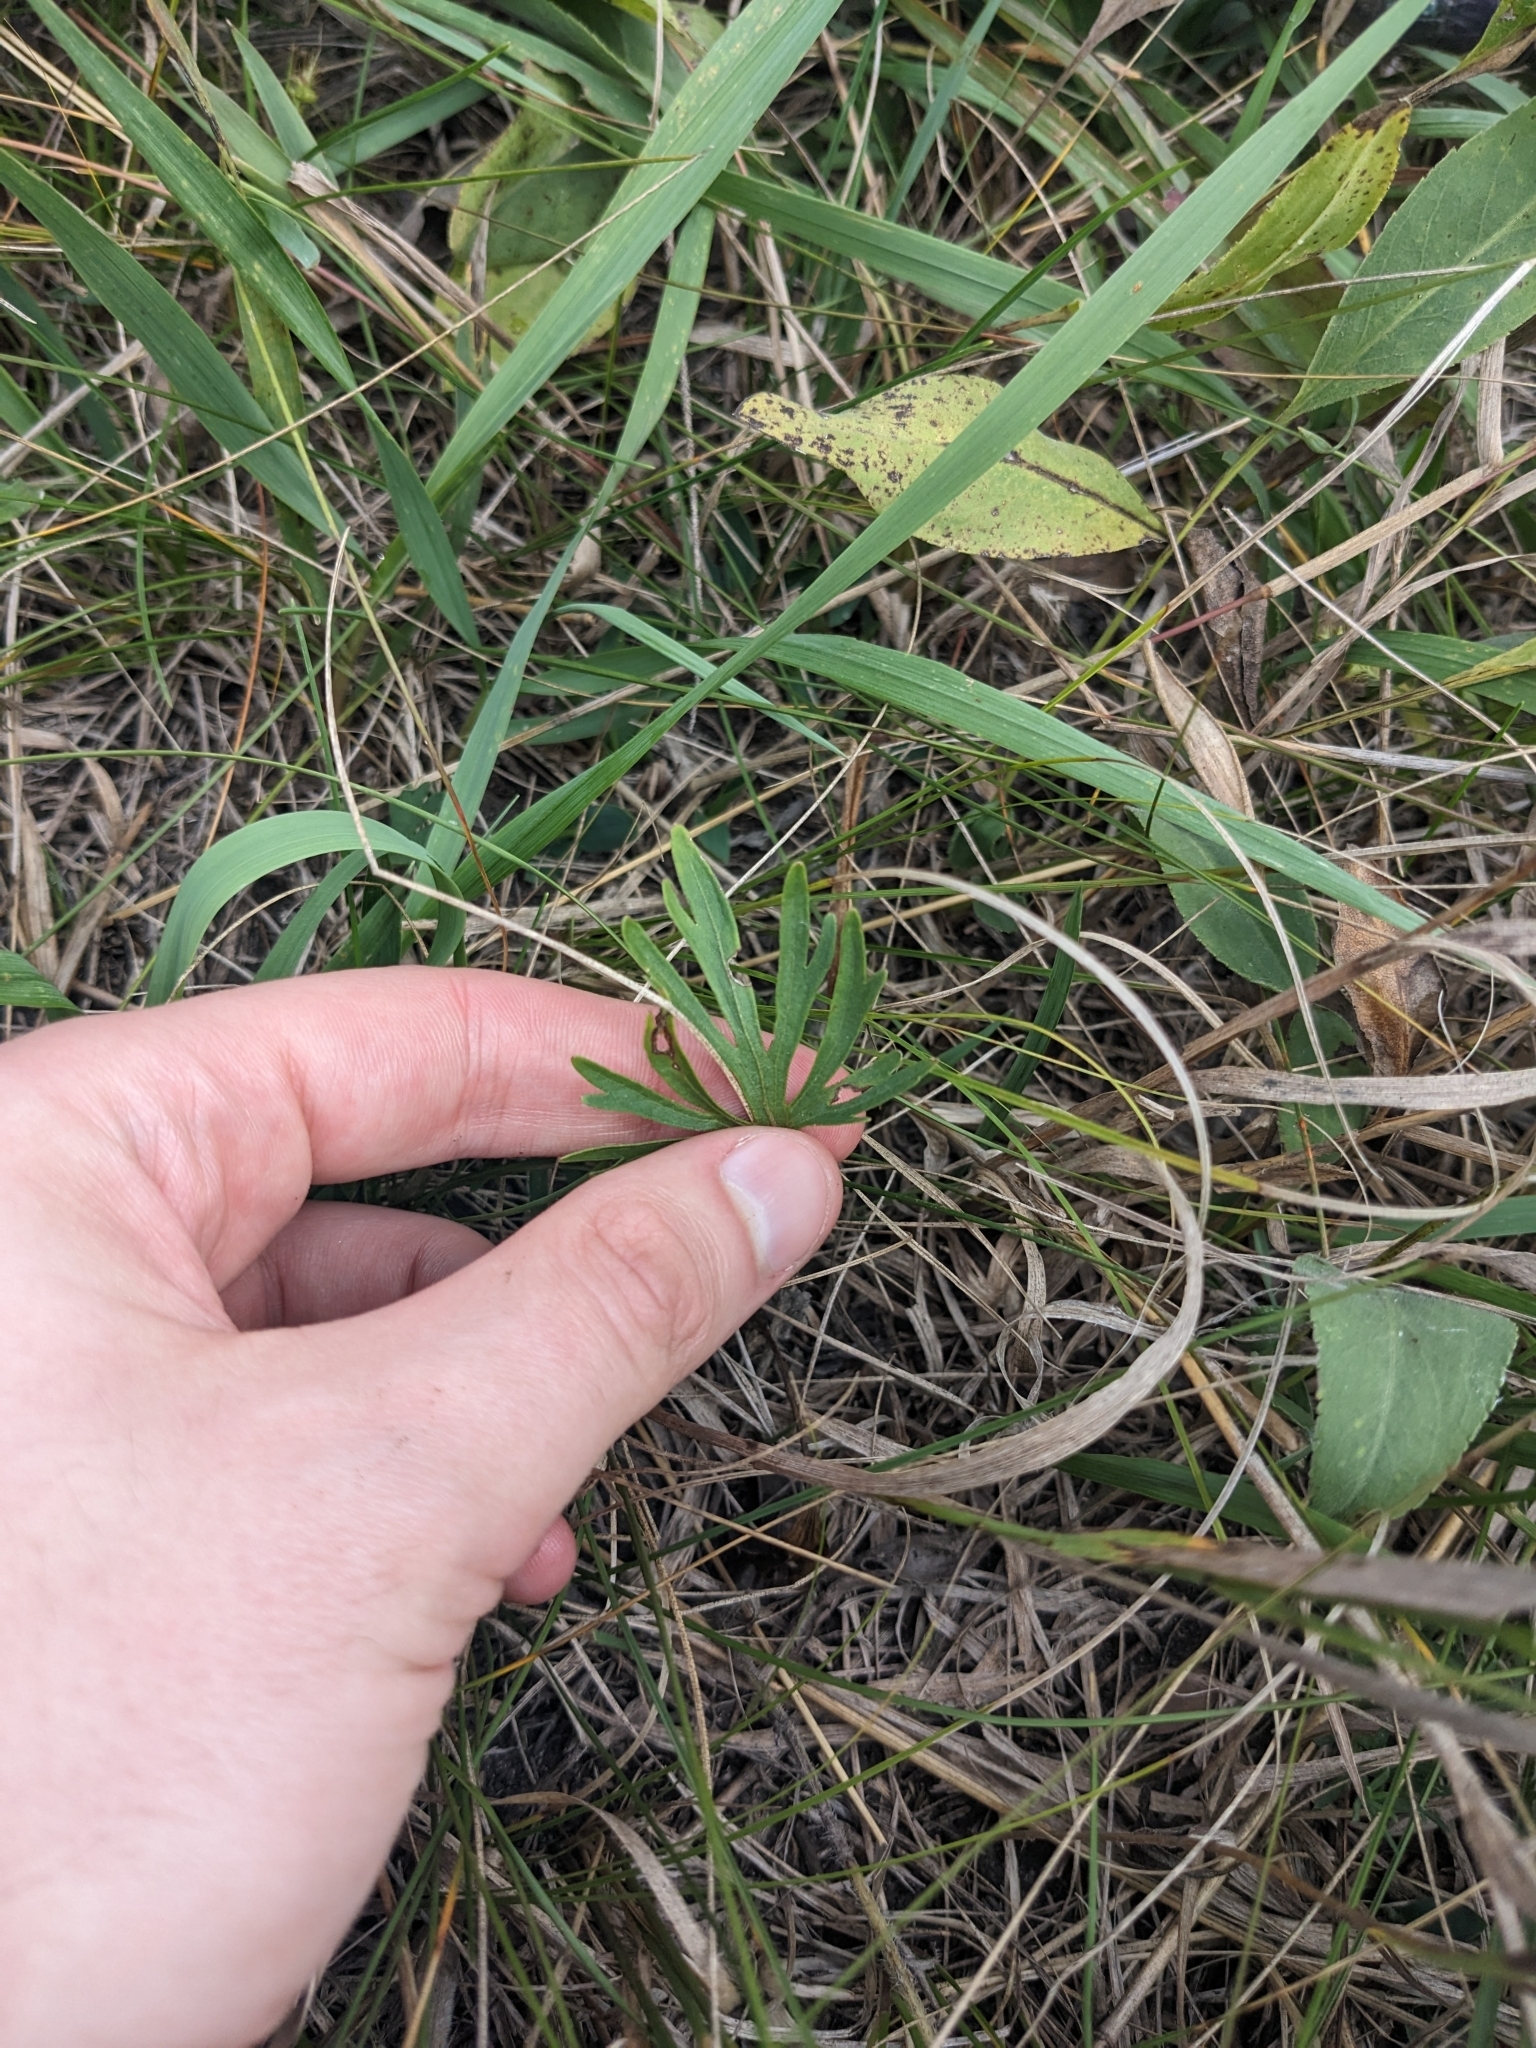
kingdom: Plantae
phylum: Tracheophyta
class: Magnoliopsida
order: Malpighiales
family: Violaceae
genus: Viola
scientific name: Viola pedatifida
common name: Prairie violet
